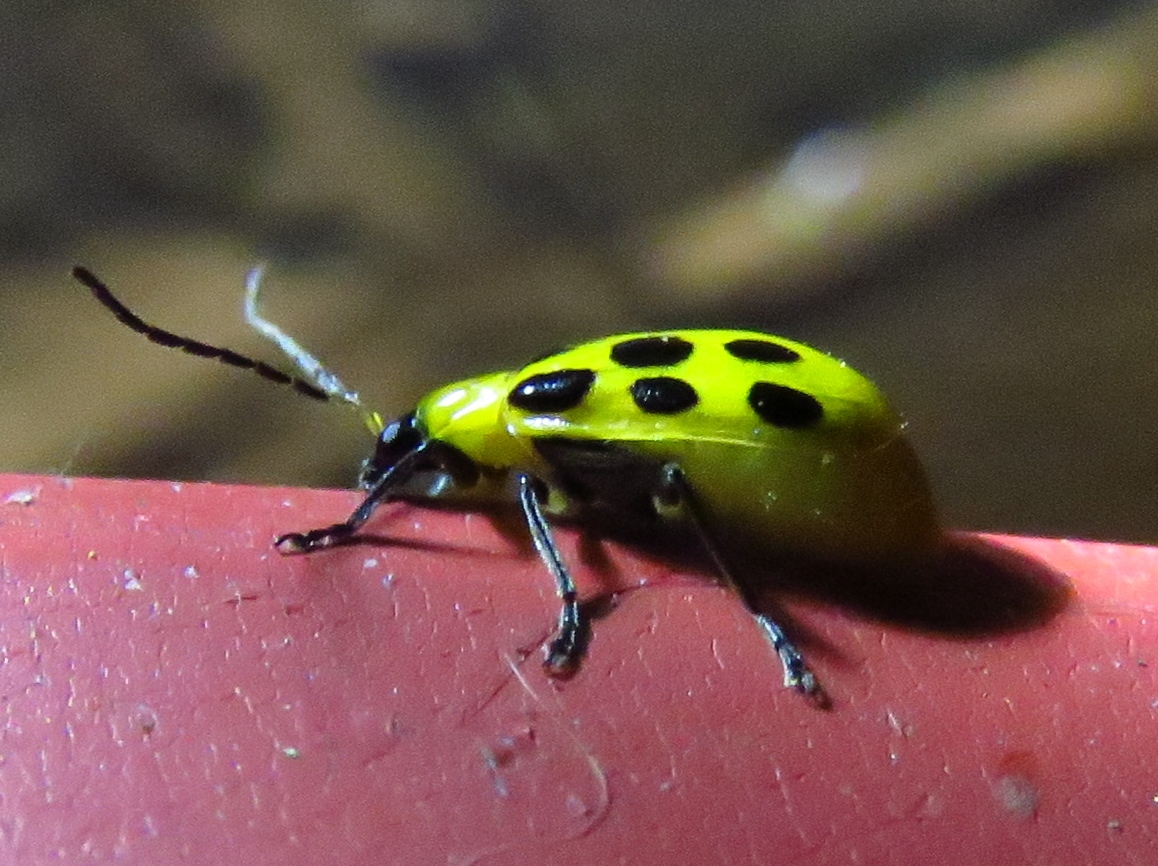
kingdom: Animalia
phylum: Arthropoda
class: Insecta
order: Coleoptera
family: Chrysomelidae
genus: Diabrotica
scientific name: Diabrotica undecimpunctata
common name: Spotted cucumber beetle
